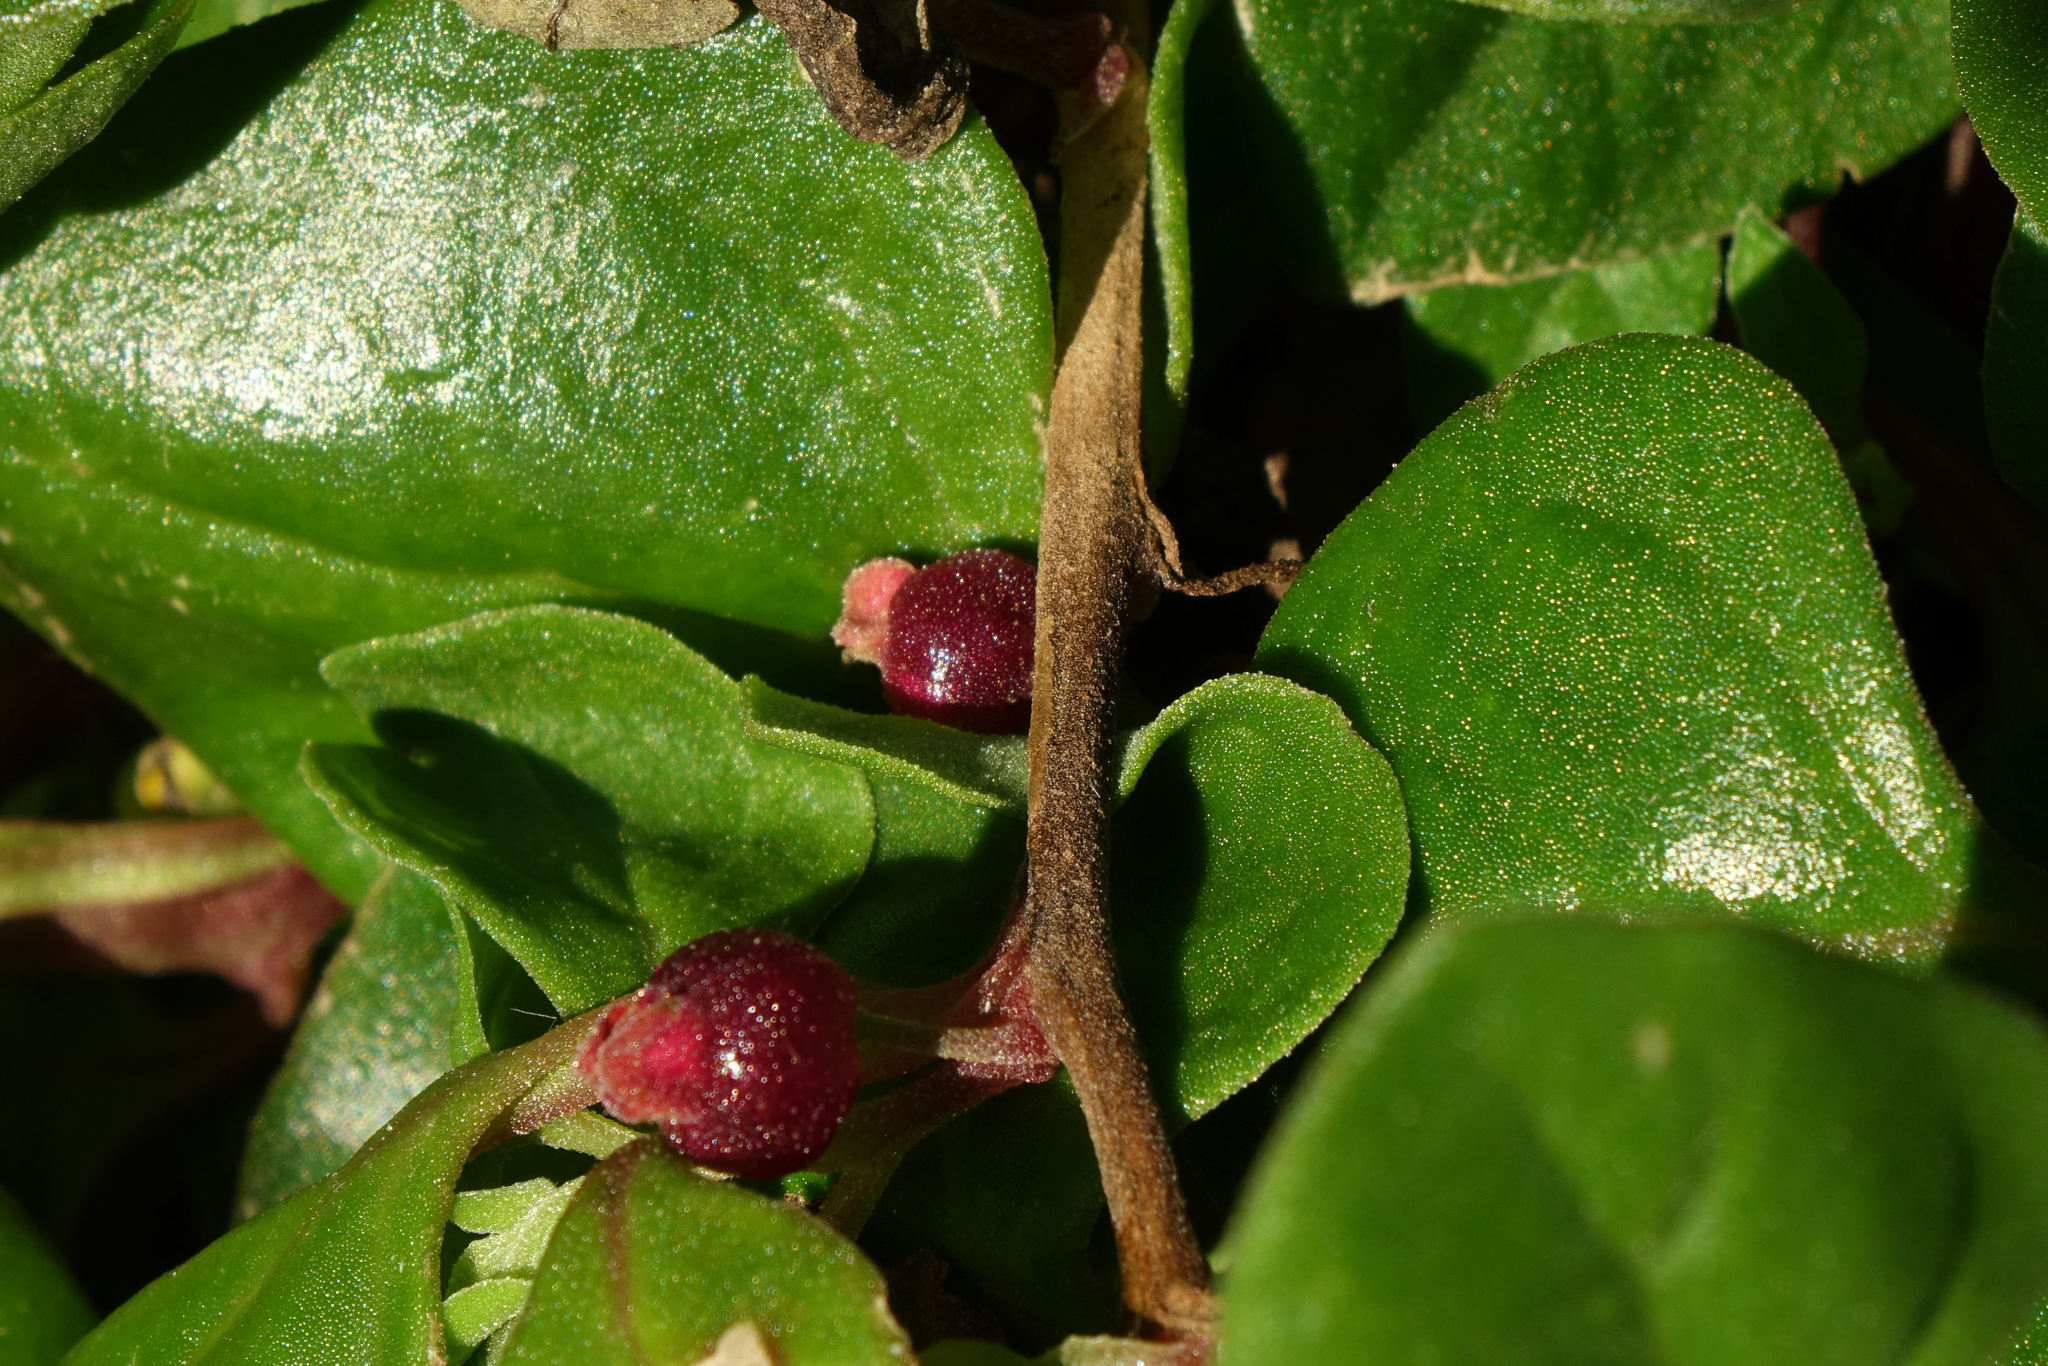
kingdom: Plantae
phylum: Tracheophyta
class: Magnoliopsida
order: Caryophyllales
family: Aizoaceae
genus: Tetragonia
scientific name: Tetragonia implexicoma
